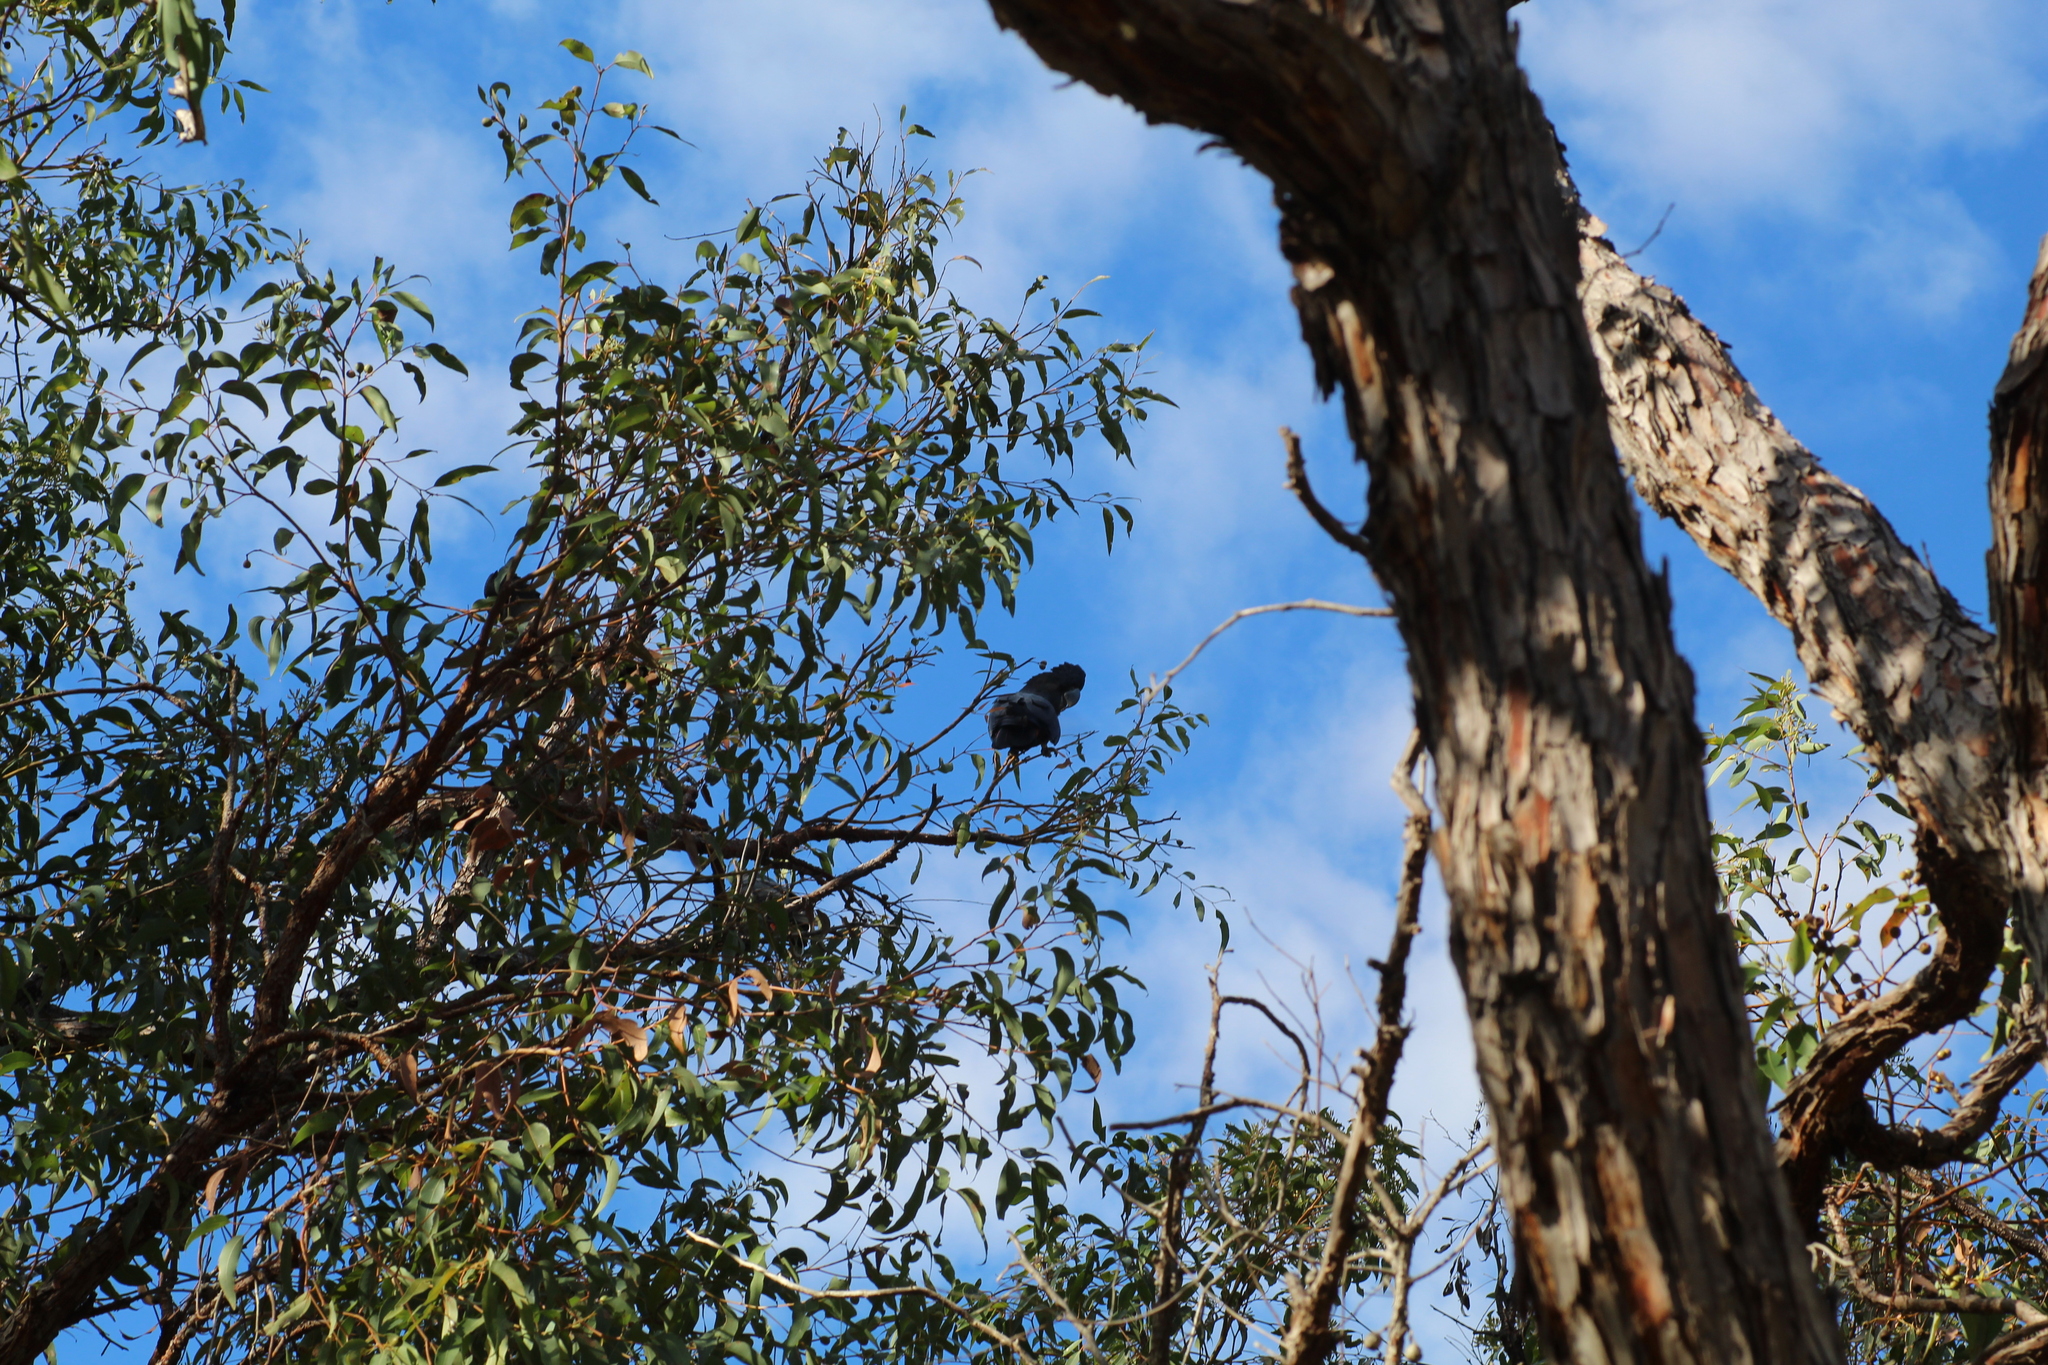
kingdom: Animalia
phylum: Chordata
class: Aves
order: Psittaciformes
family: Psittacidae
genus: Calyptorhynchus
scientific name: Calyptorhynchus banksii
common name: Red-tailed black cockatoo
